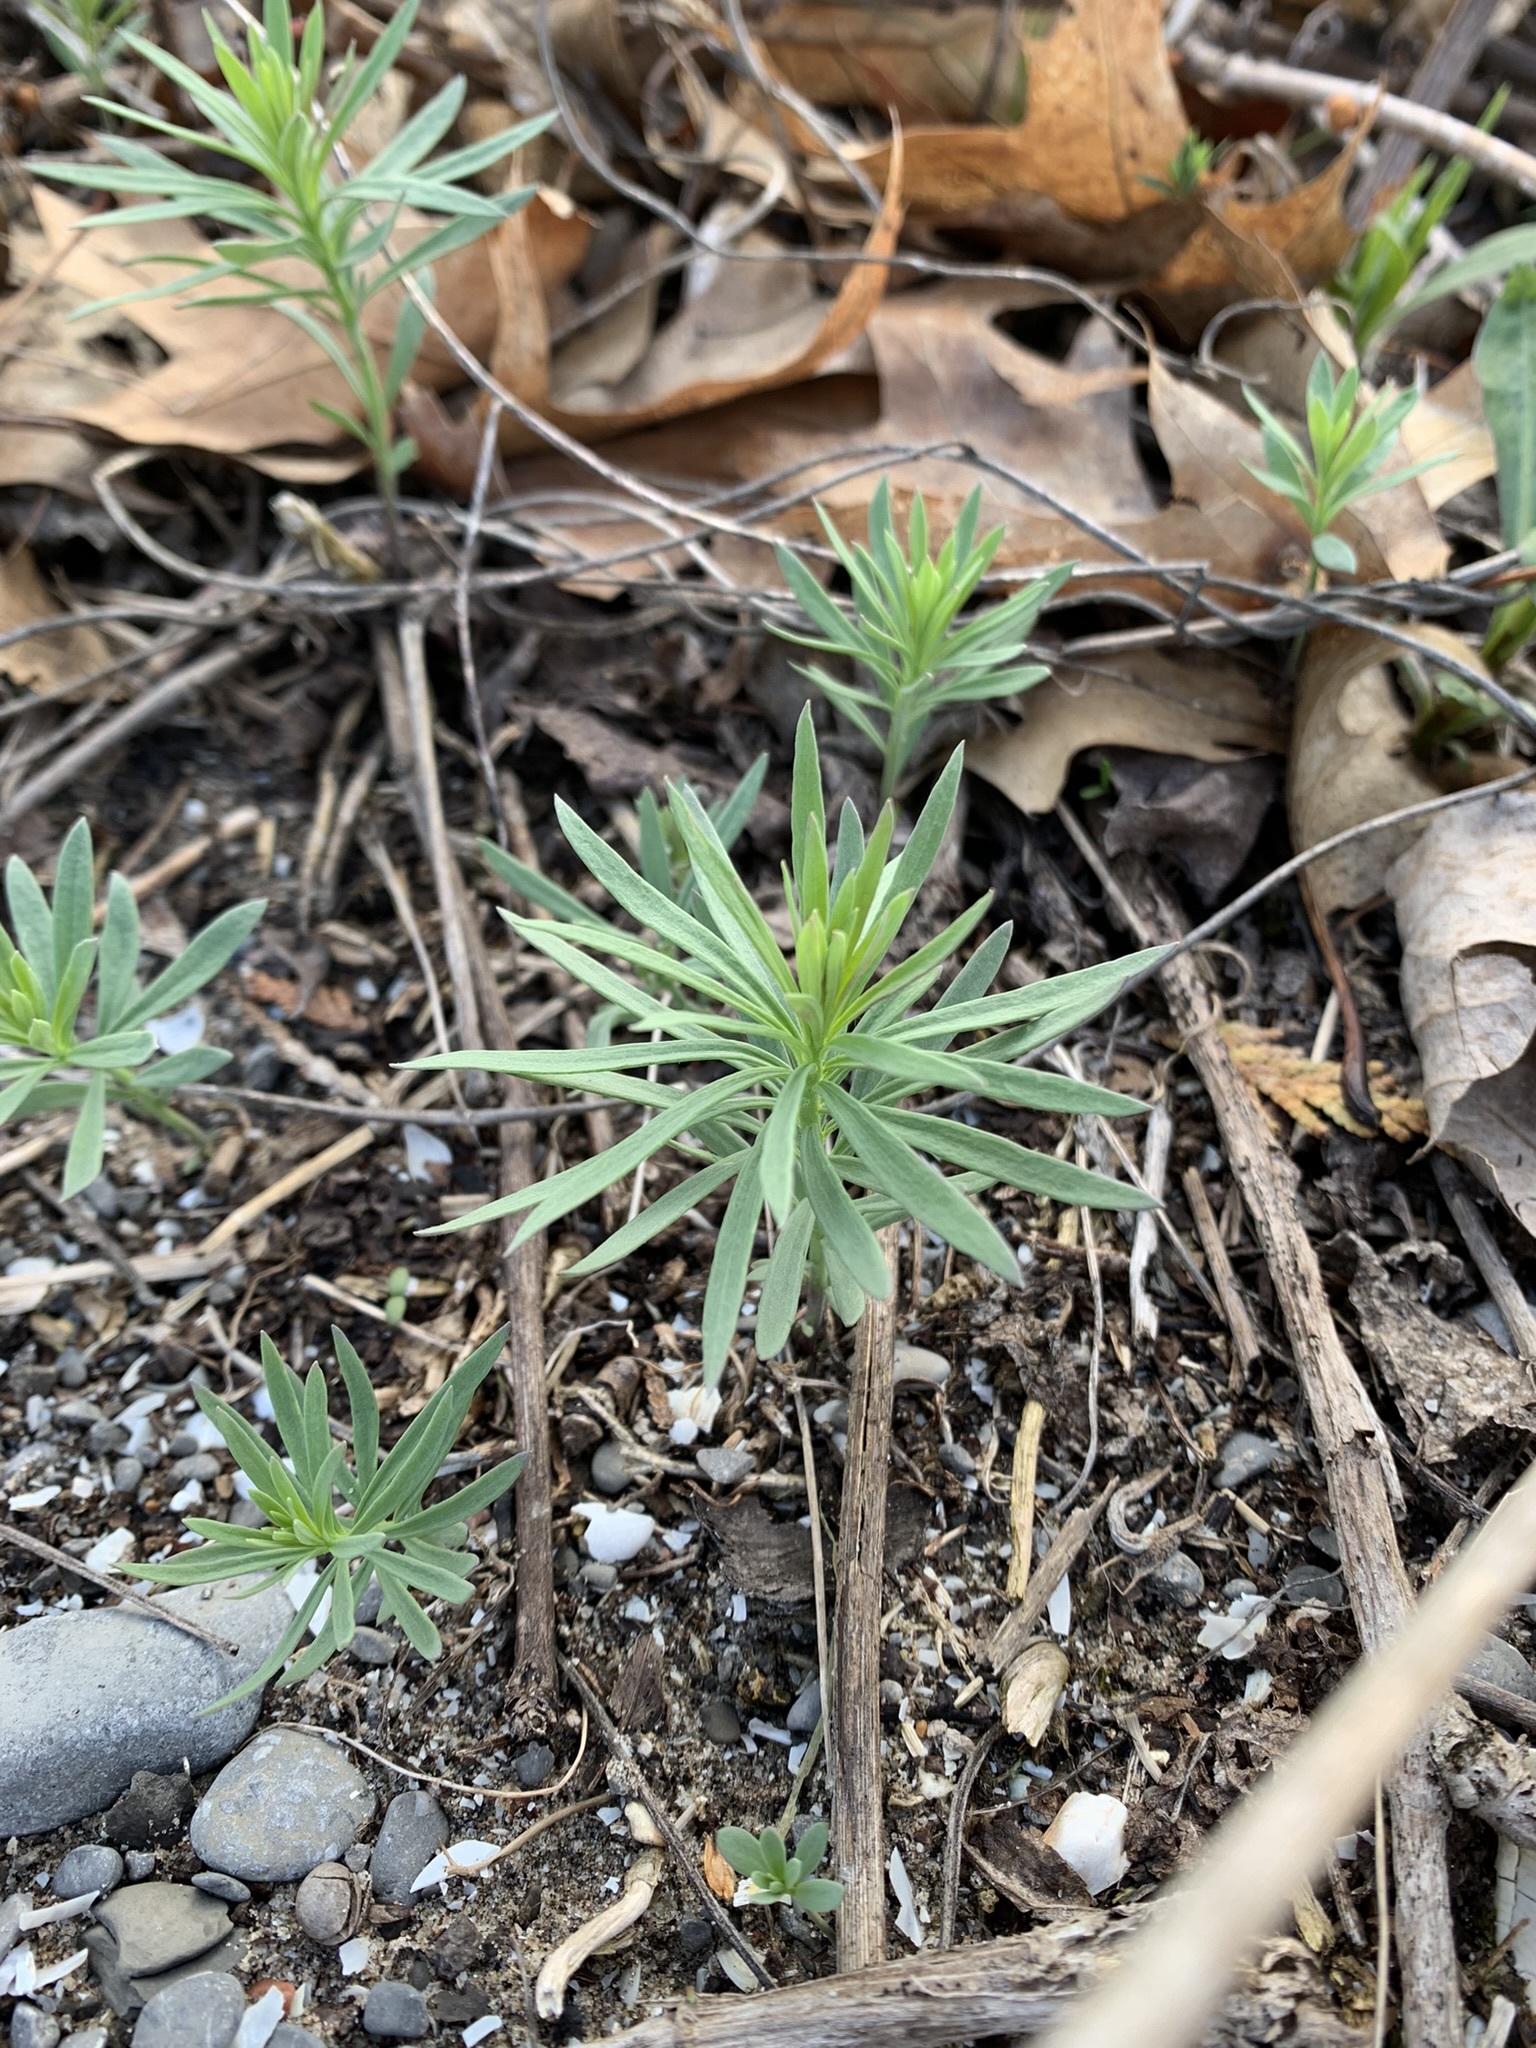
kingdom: Plantae
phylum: Tracheophyta
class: Magnoliopsida
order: Lamiales
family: Plantaginaceae
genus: Linaria
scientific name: Linaria vulgaris
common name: Butter and eggs
